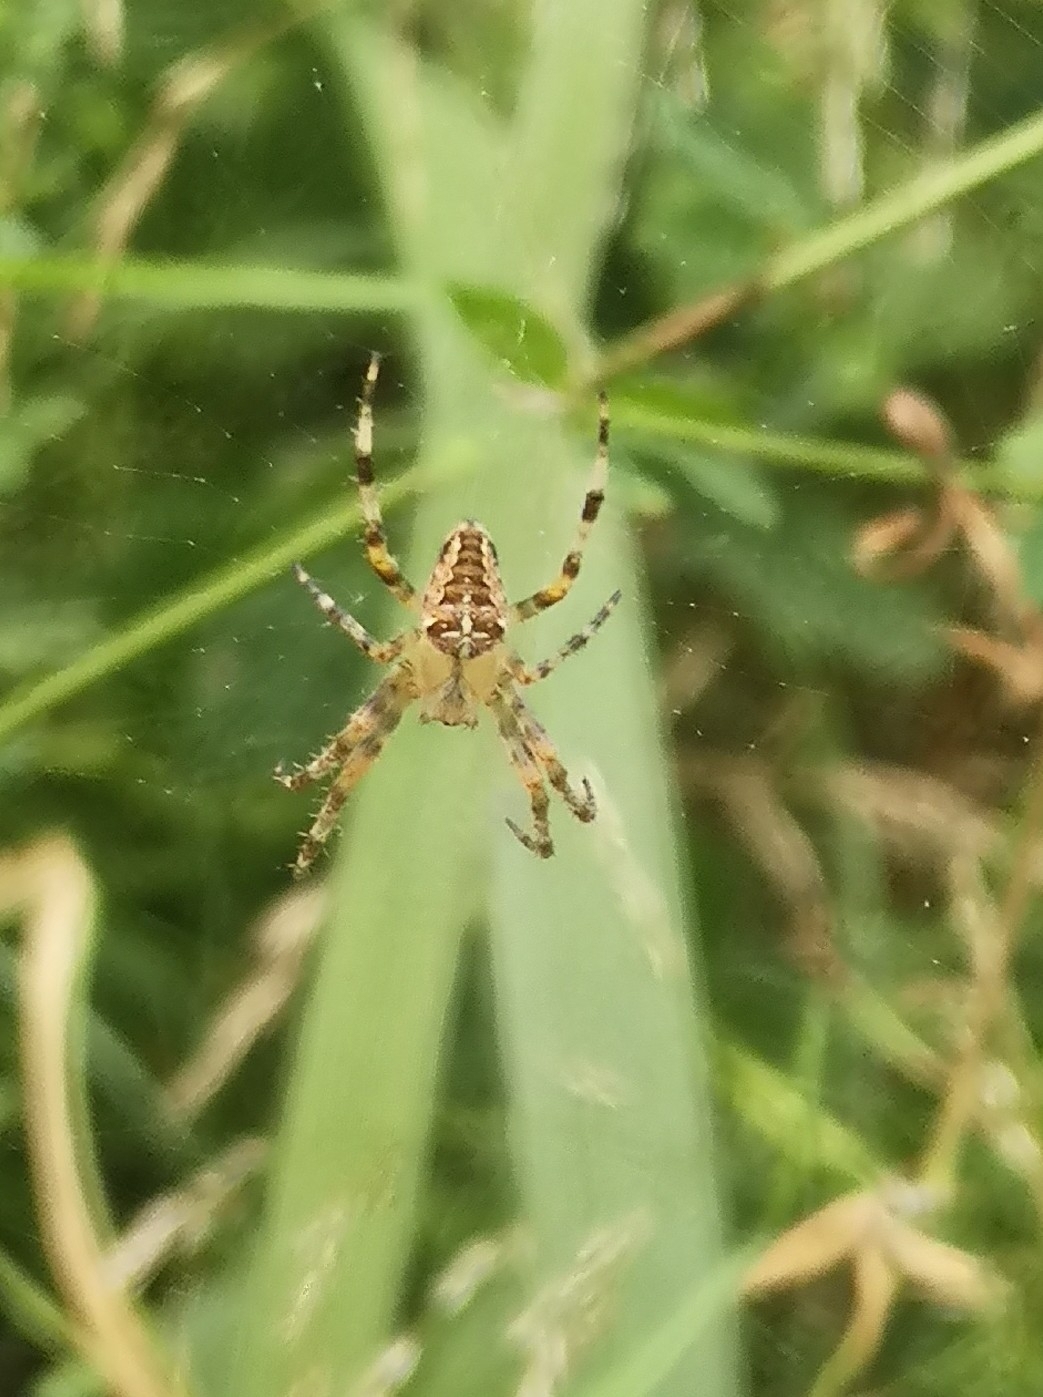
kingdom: Animalia
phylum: Arthropoda
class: Arachnida
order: Araneae
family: Araneidae
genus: Araneus
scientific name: Araneus diadematus
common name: Cross orbweaver
